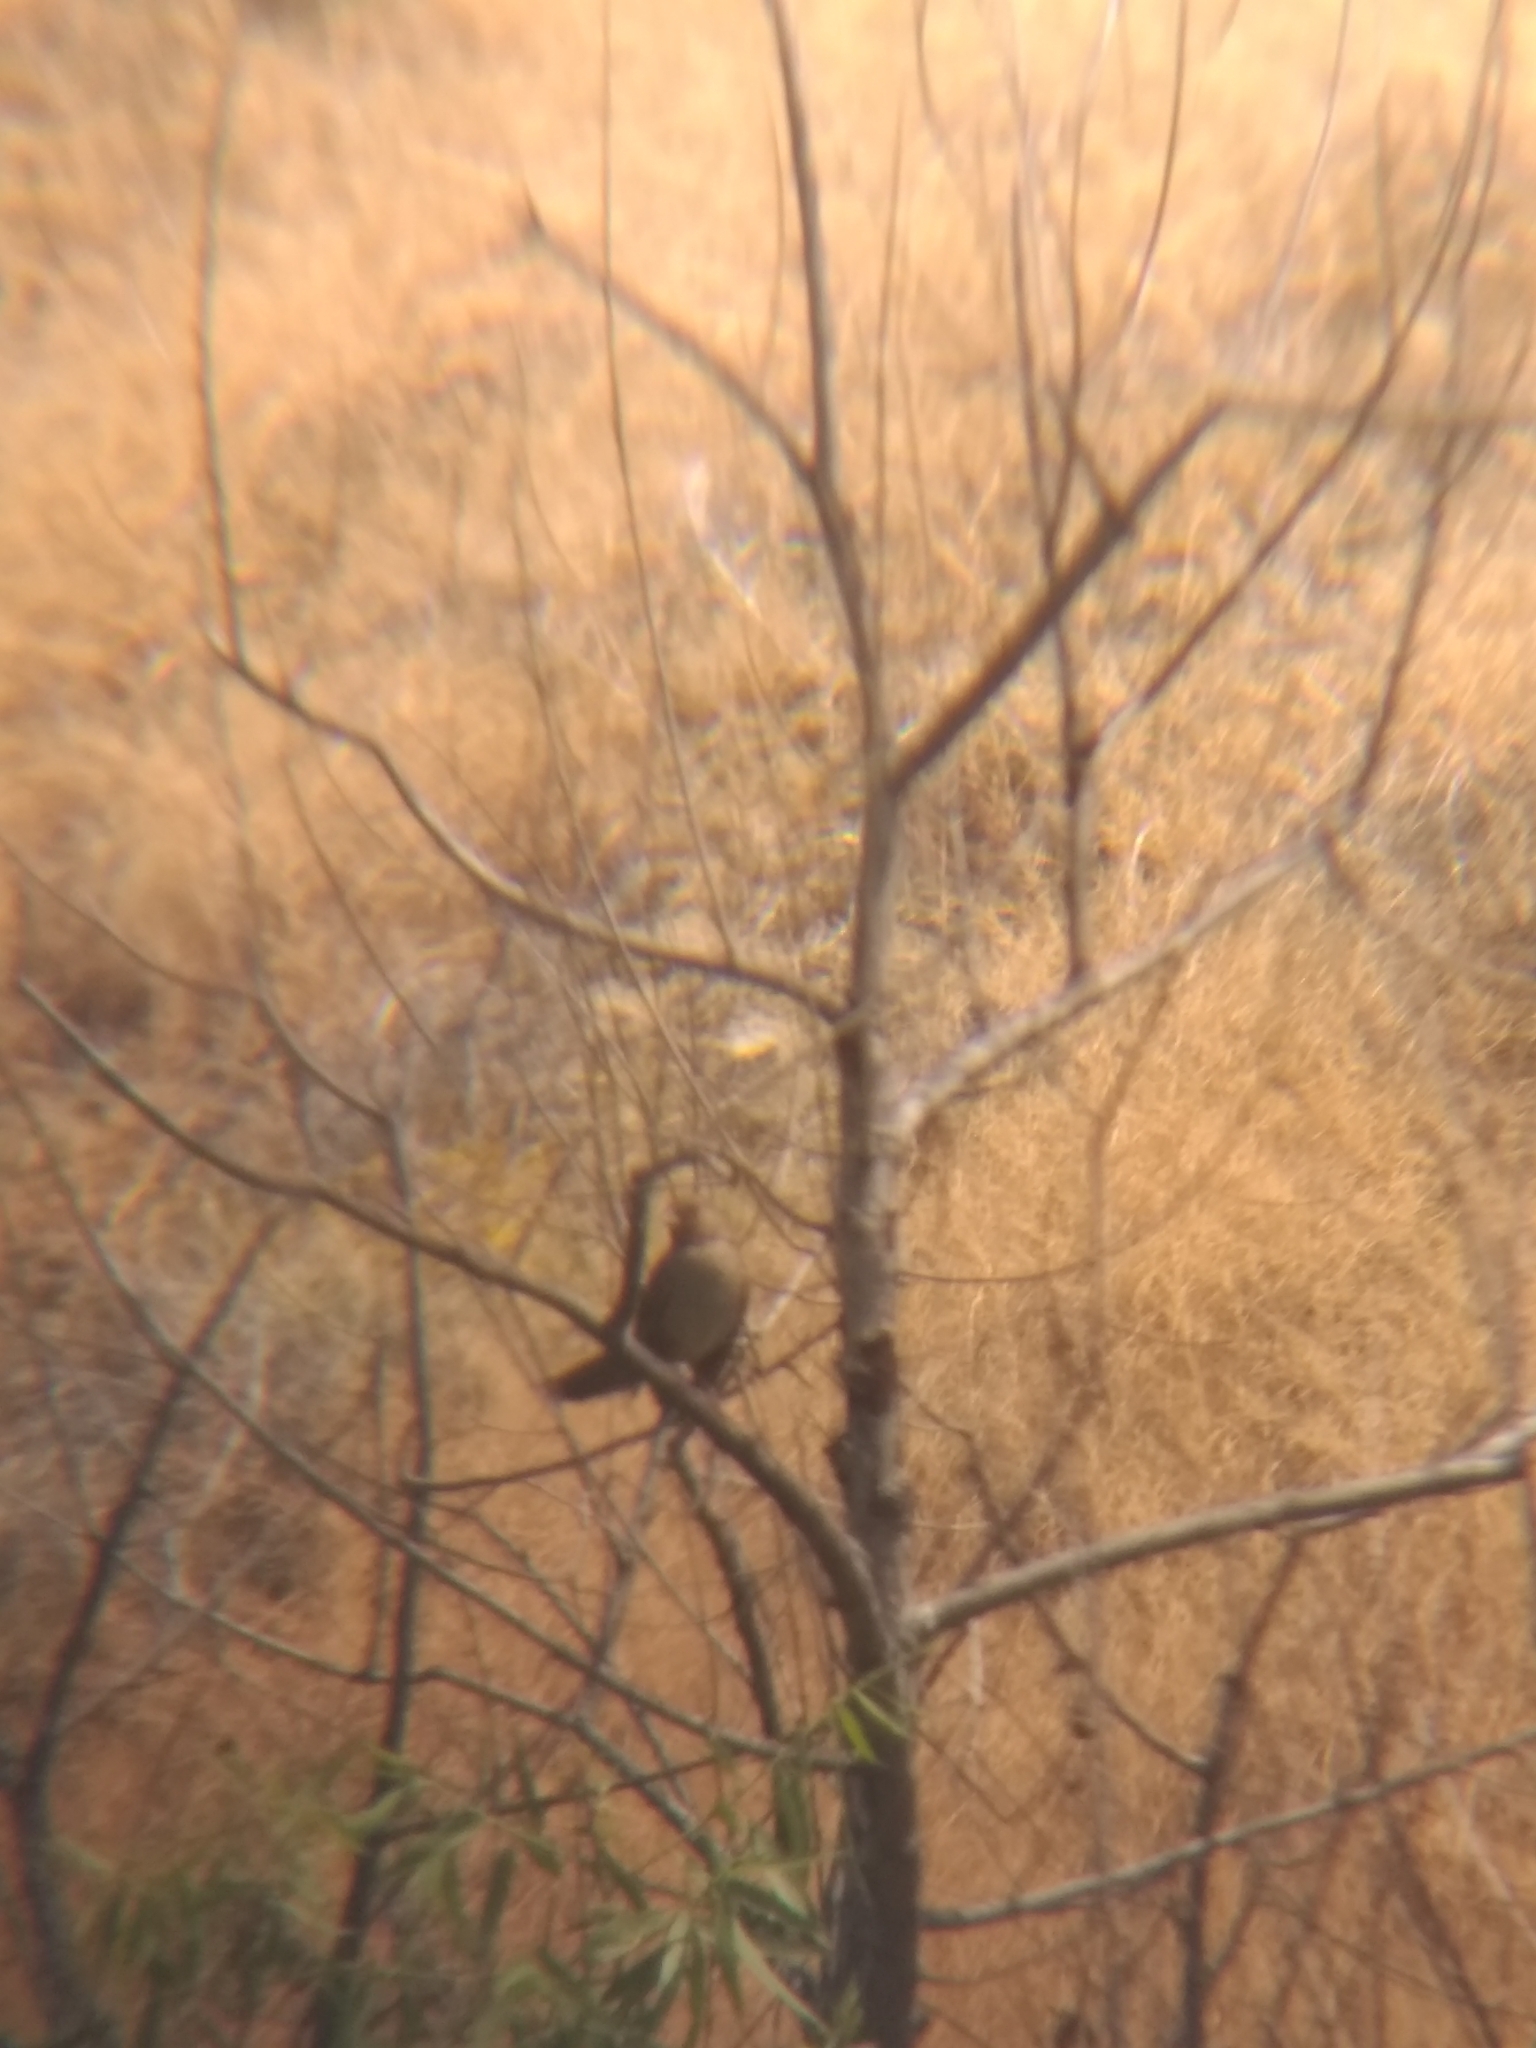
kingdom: Animalia
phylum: Chordata
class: Aves
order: Passeriformes
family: Passerellidae
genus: Melozone
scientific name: Melozone crissalis
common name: California towhee
